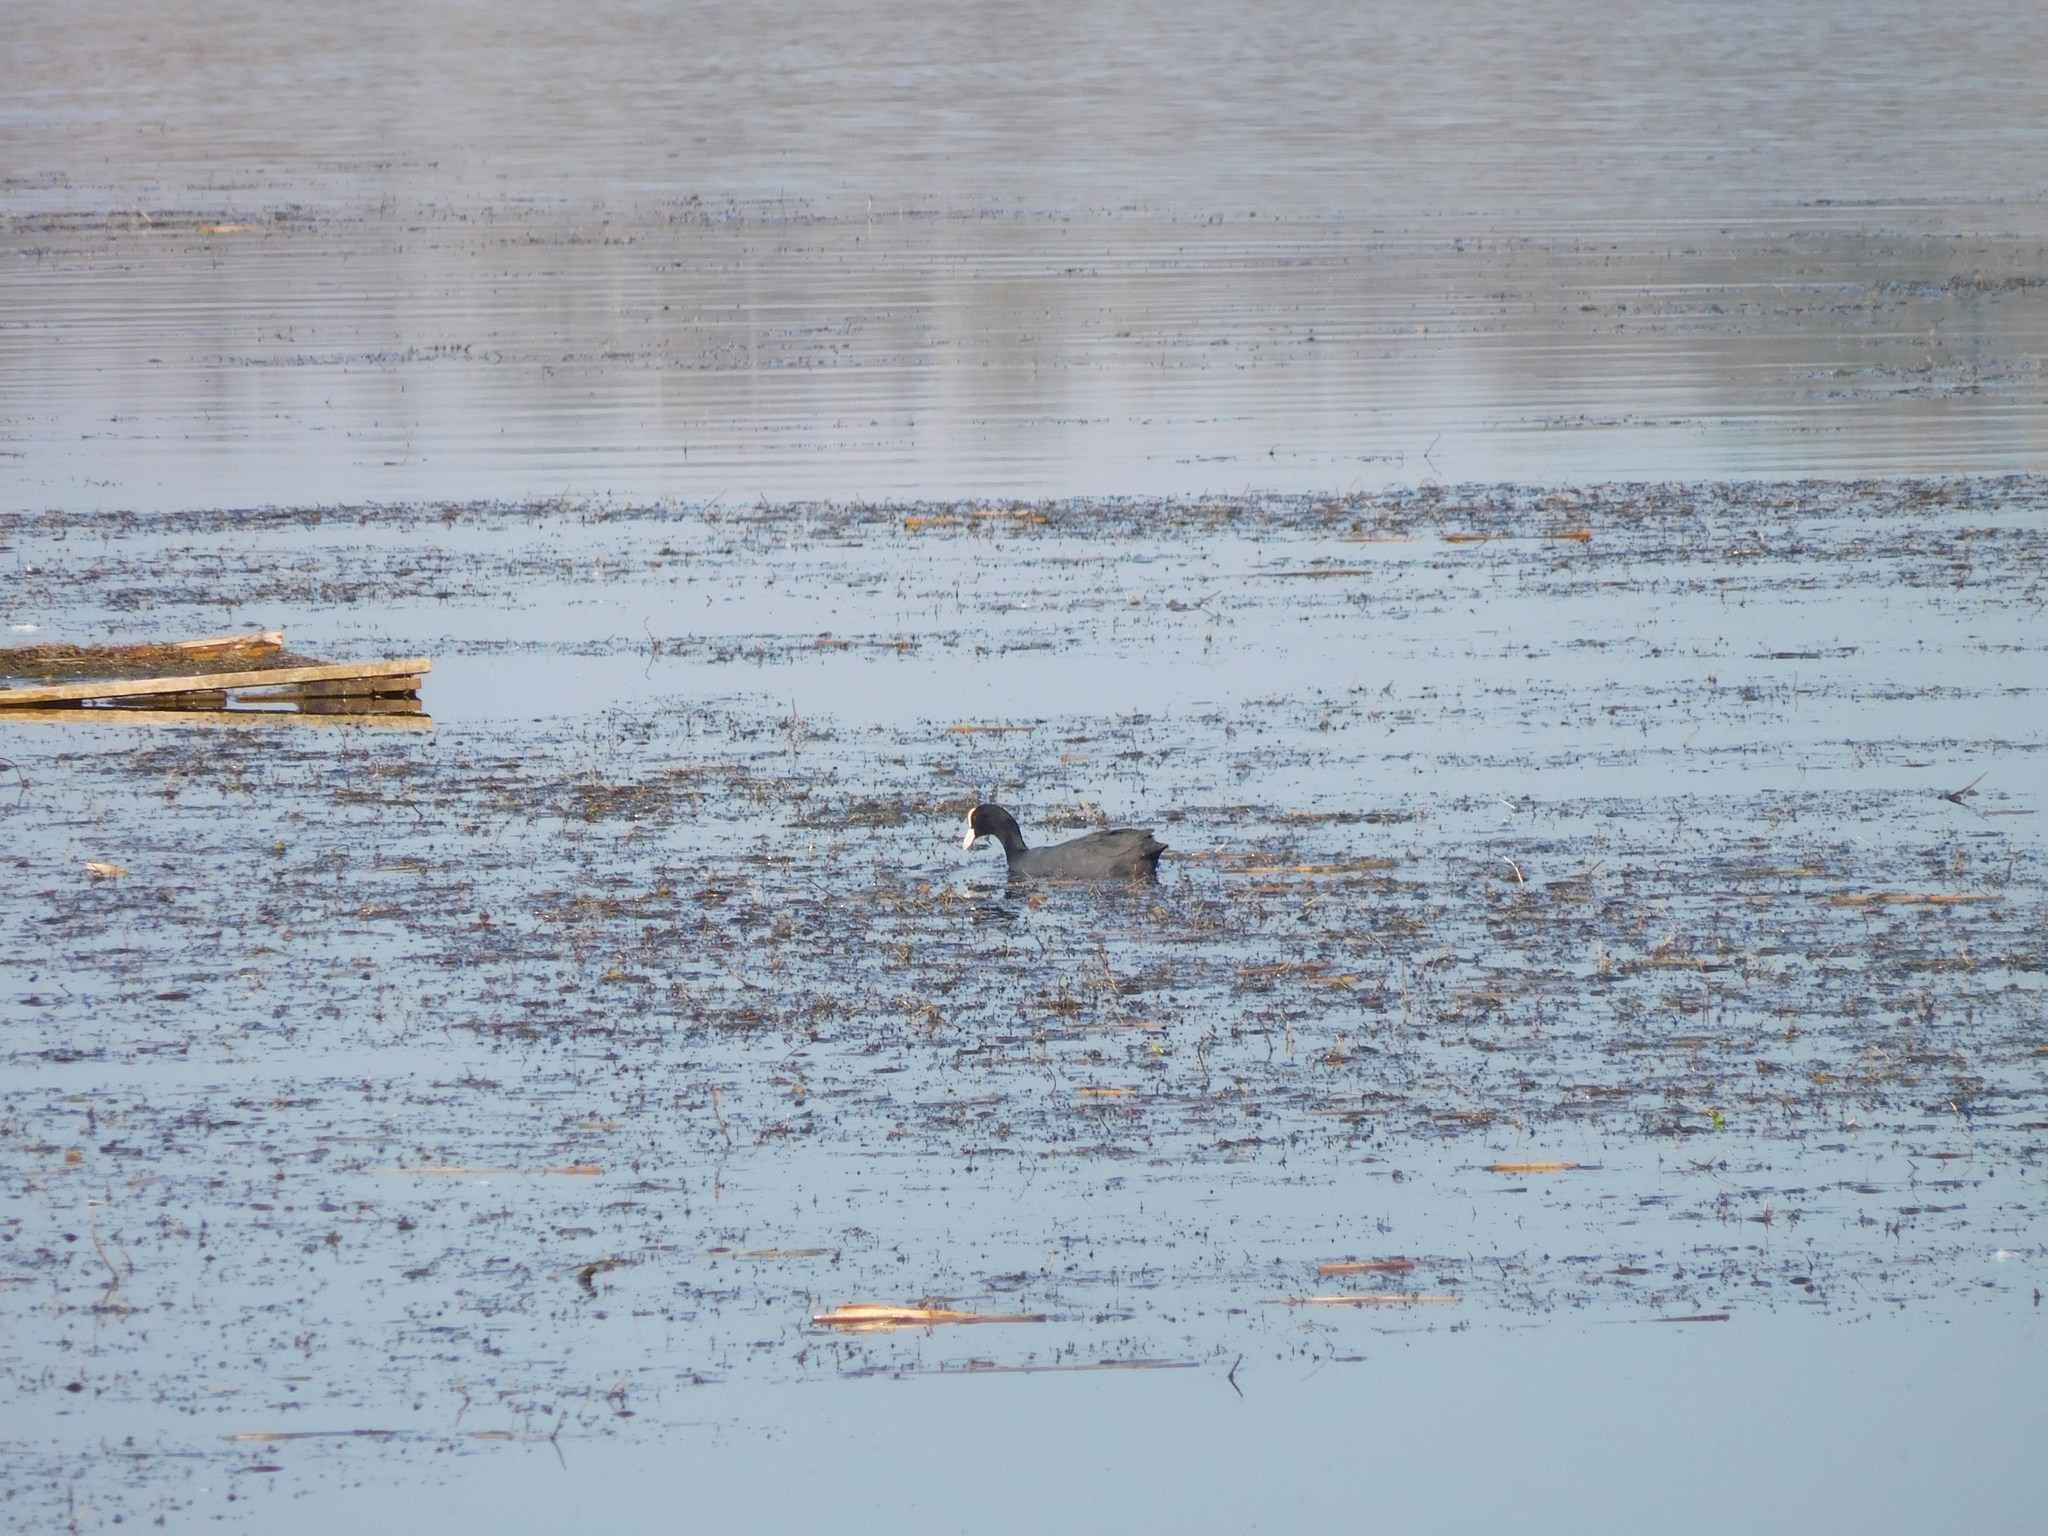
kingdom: Animalia
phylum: Chordata
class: Aves
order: Gruiformes
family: Rallidae
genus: Fulica
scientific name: Fulica atra
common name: Eurasian coot
